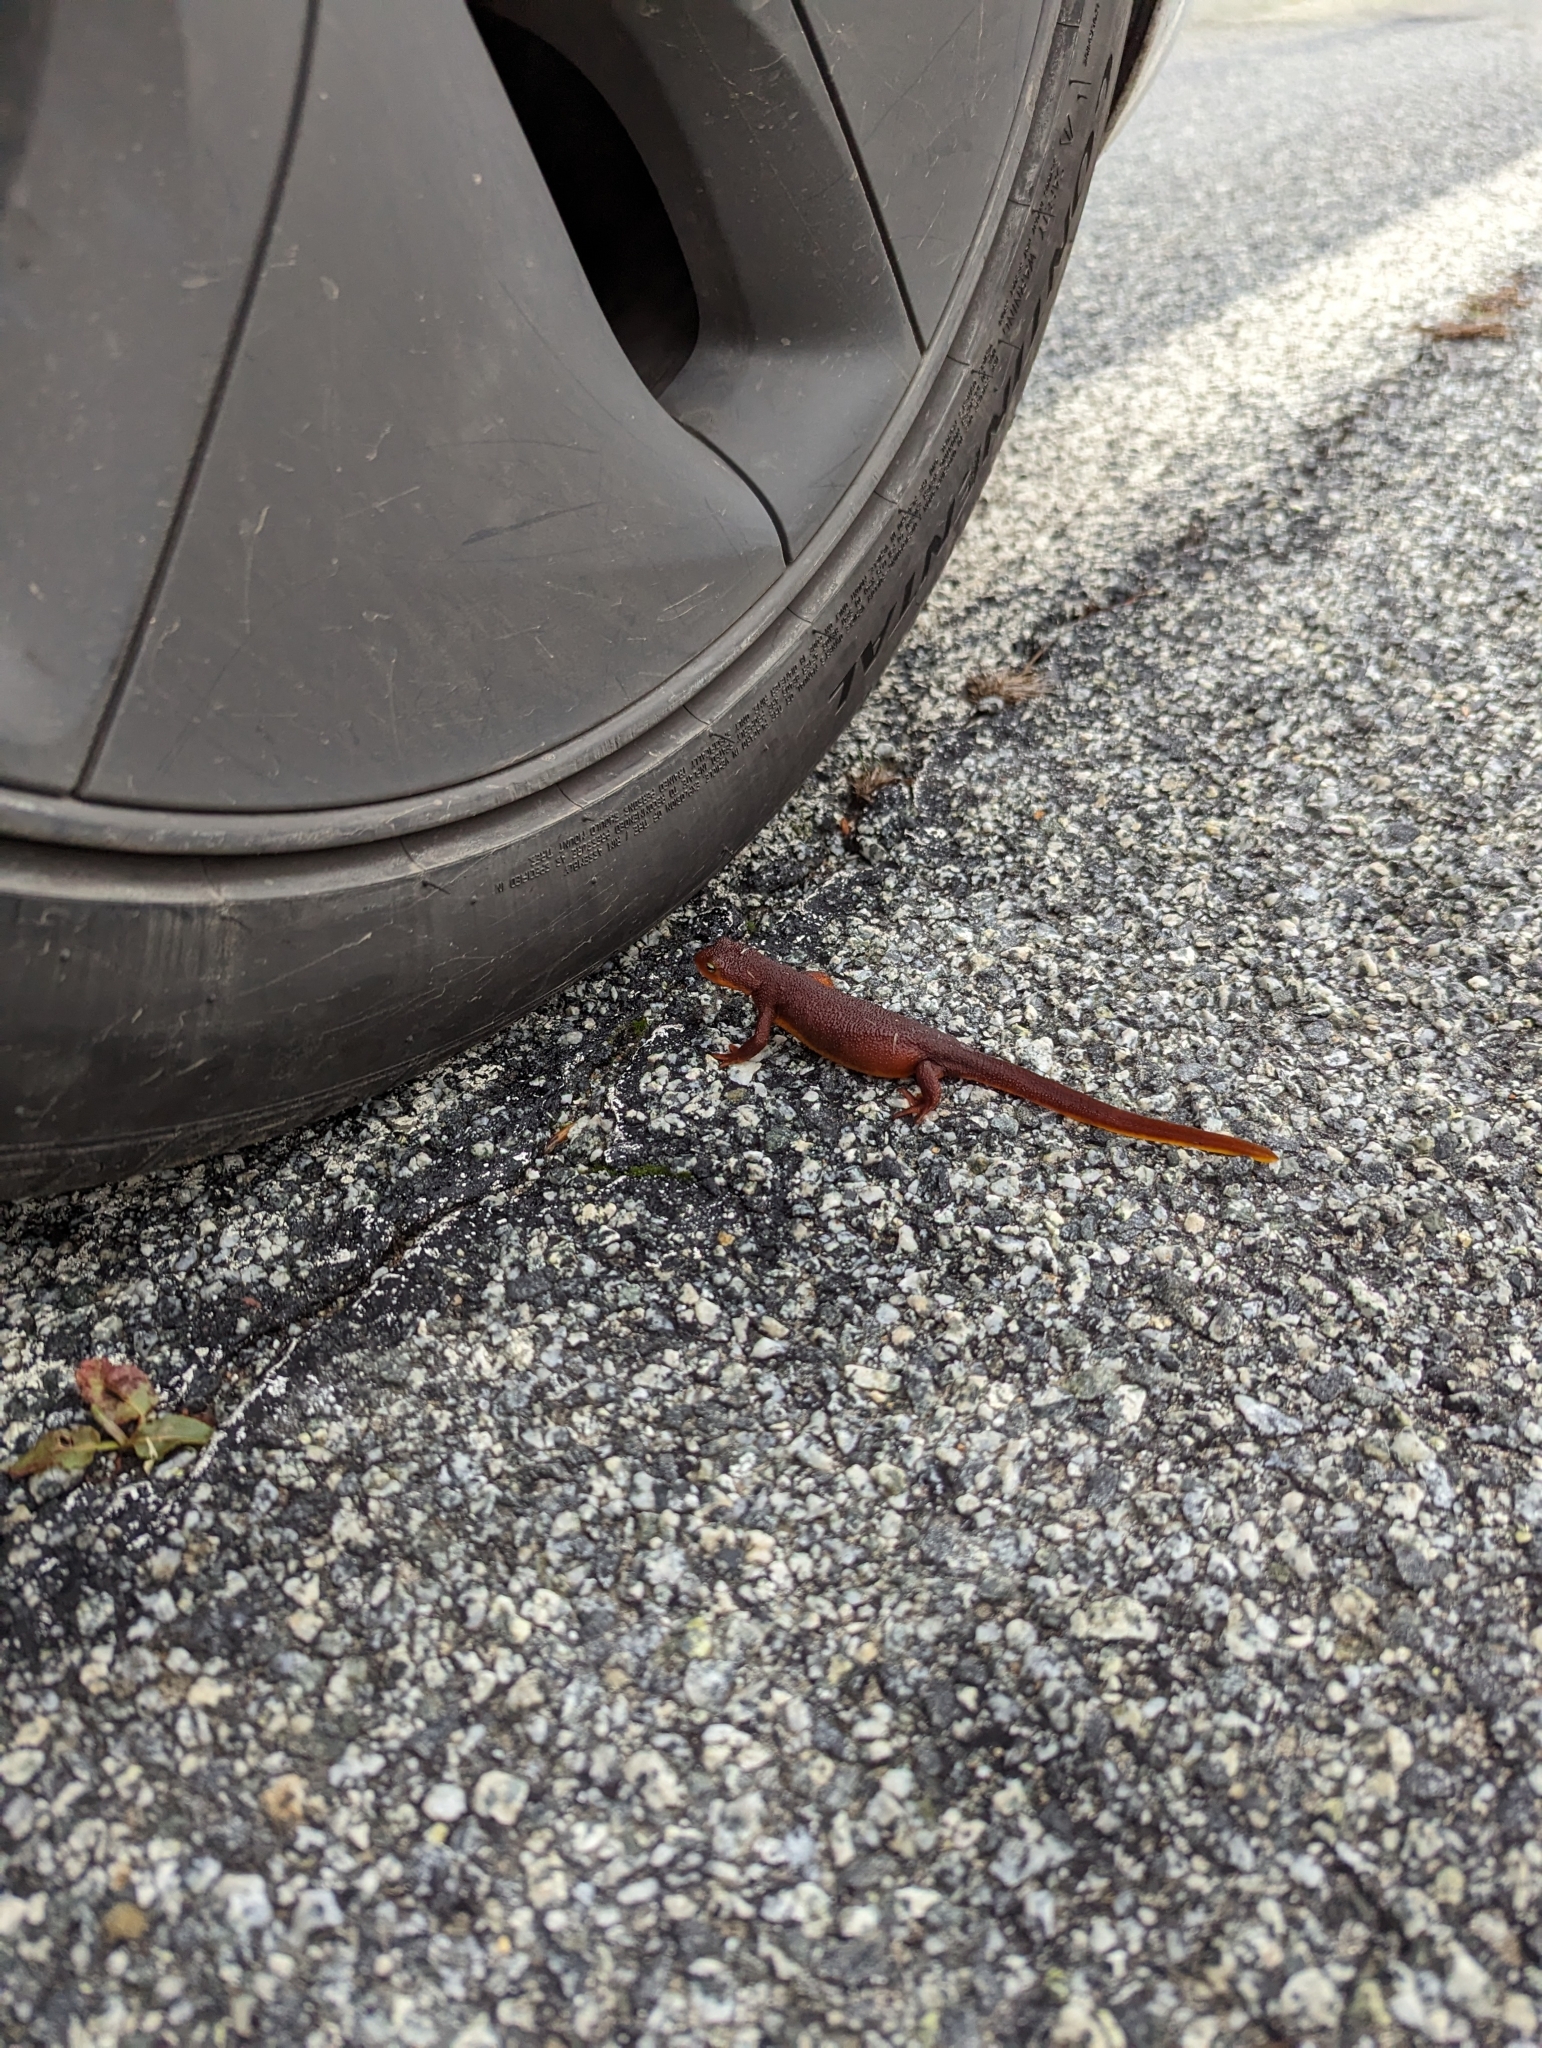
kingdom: Animalia
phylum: Chordata
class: Amphibia
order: Caudata
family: Salamandridae
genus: Taricha
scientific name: Taricha torosa
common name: California newt
